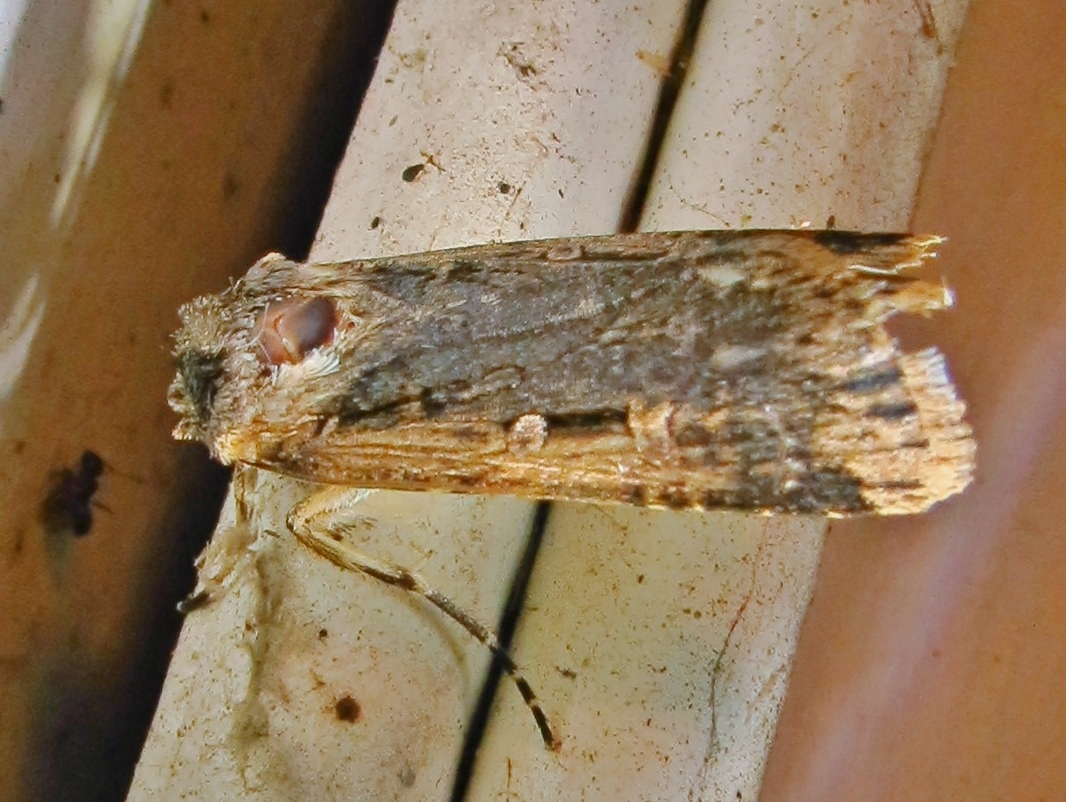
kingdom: Animalia
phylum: Arthropoda
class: Insecta
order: Lepidoptera
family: Noctuidae
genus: Feltia
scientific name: Feltia subterranea
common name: Granulate cutworm
